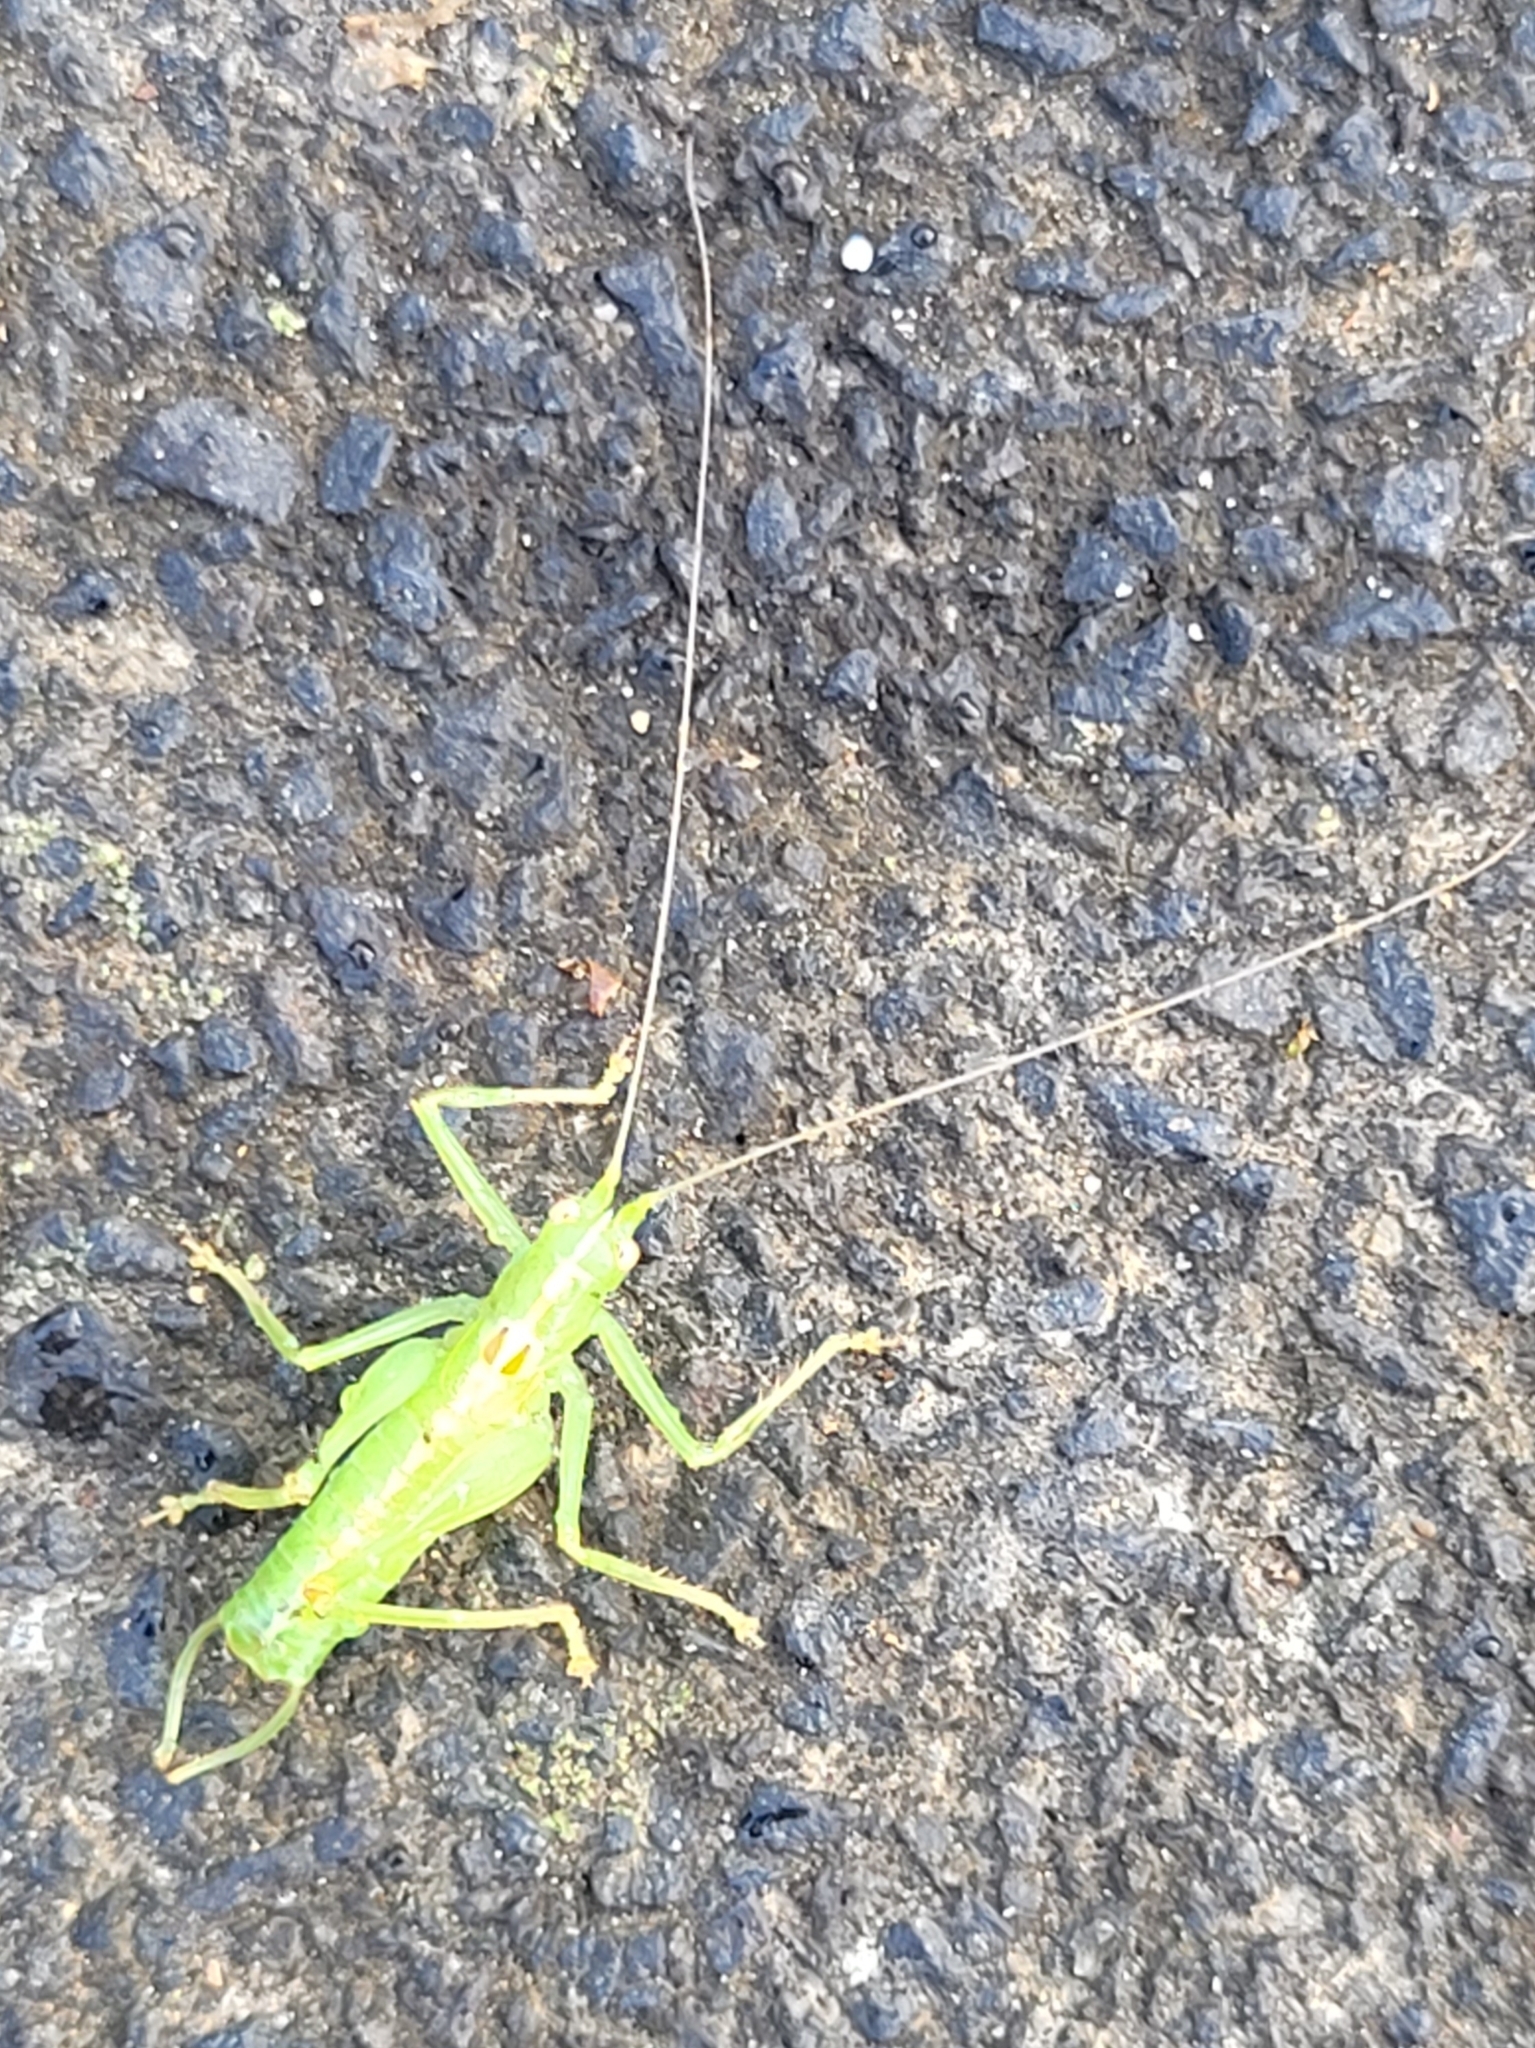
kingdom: Animalia
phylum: Arthropoda
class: Insecta
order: Orthoptera
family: Tettigoniidae
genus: Meconema
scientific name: Meconema meridionale
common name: Southern oak bush-cricket
